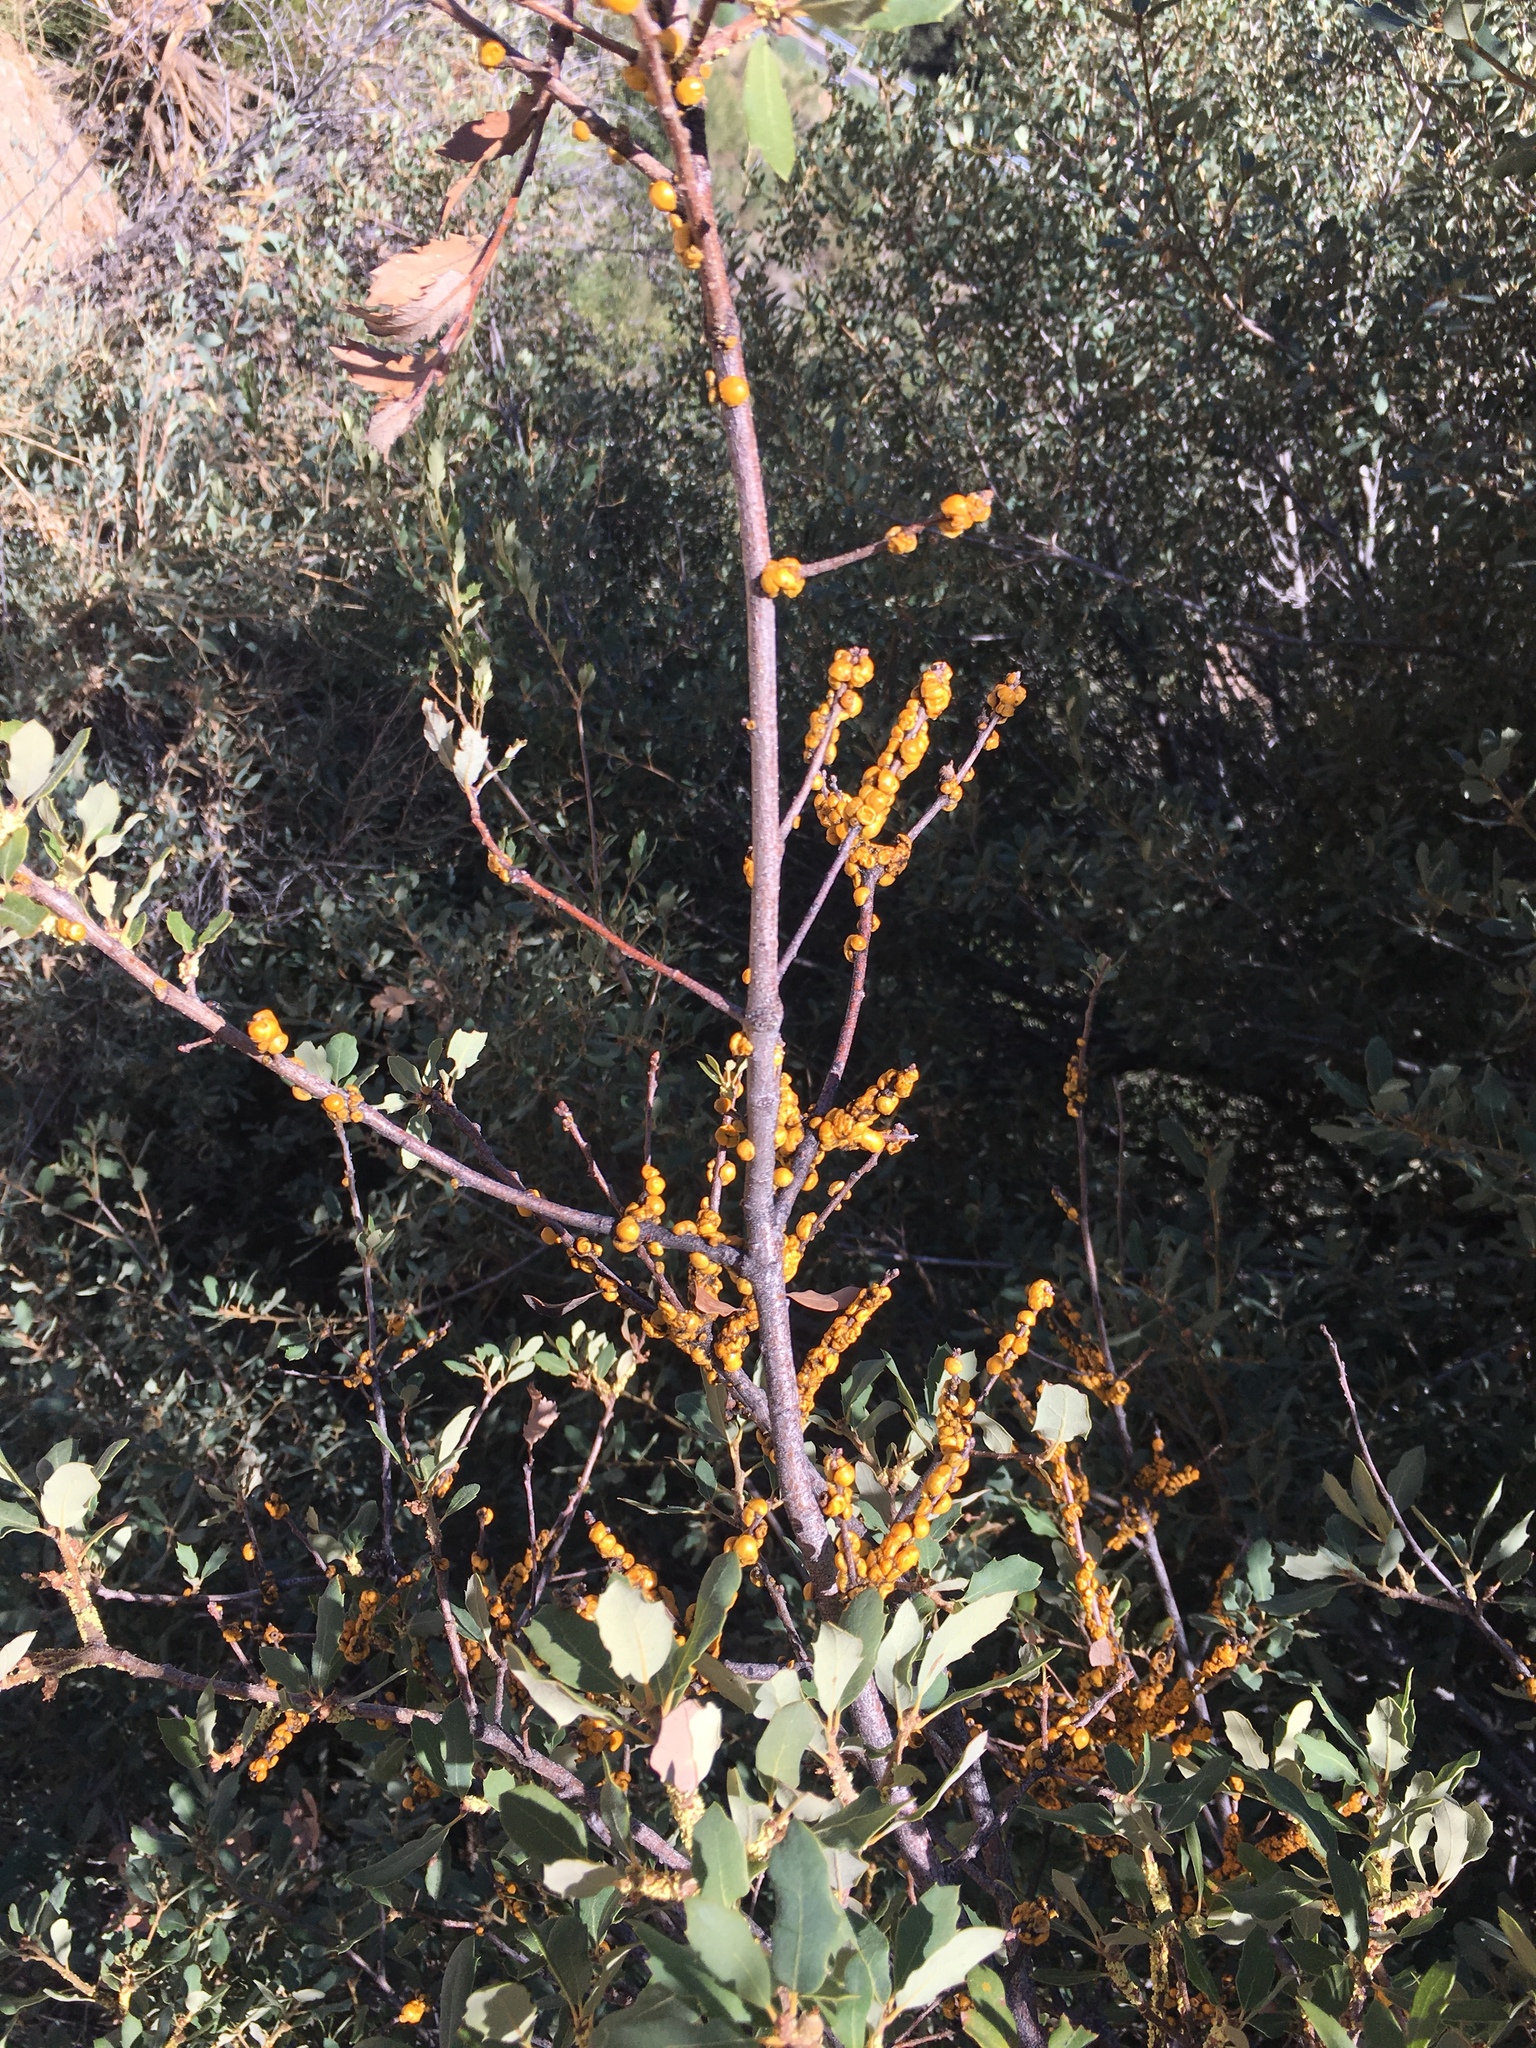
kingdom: Animalia
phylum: Arthropoda
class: Insecta
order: Hemiptera
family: Cerococcidae
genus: Cerococcus
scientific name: Cerococcus quercus
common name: Oak cerococcus
